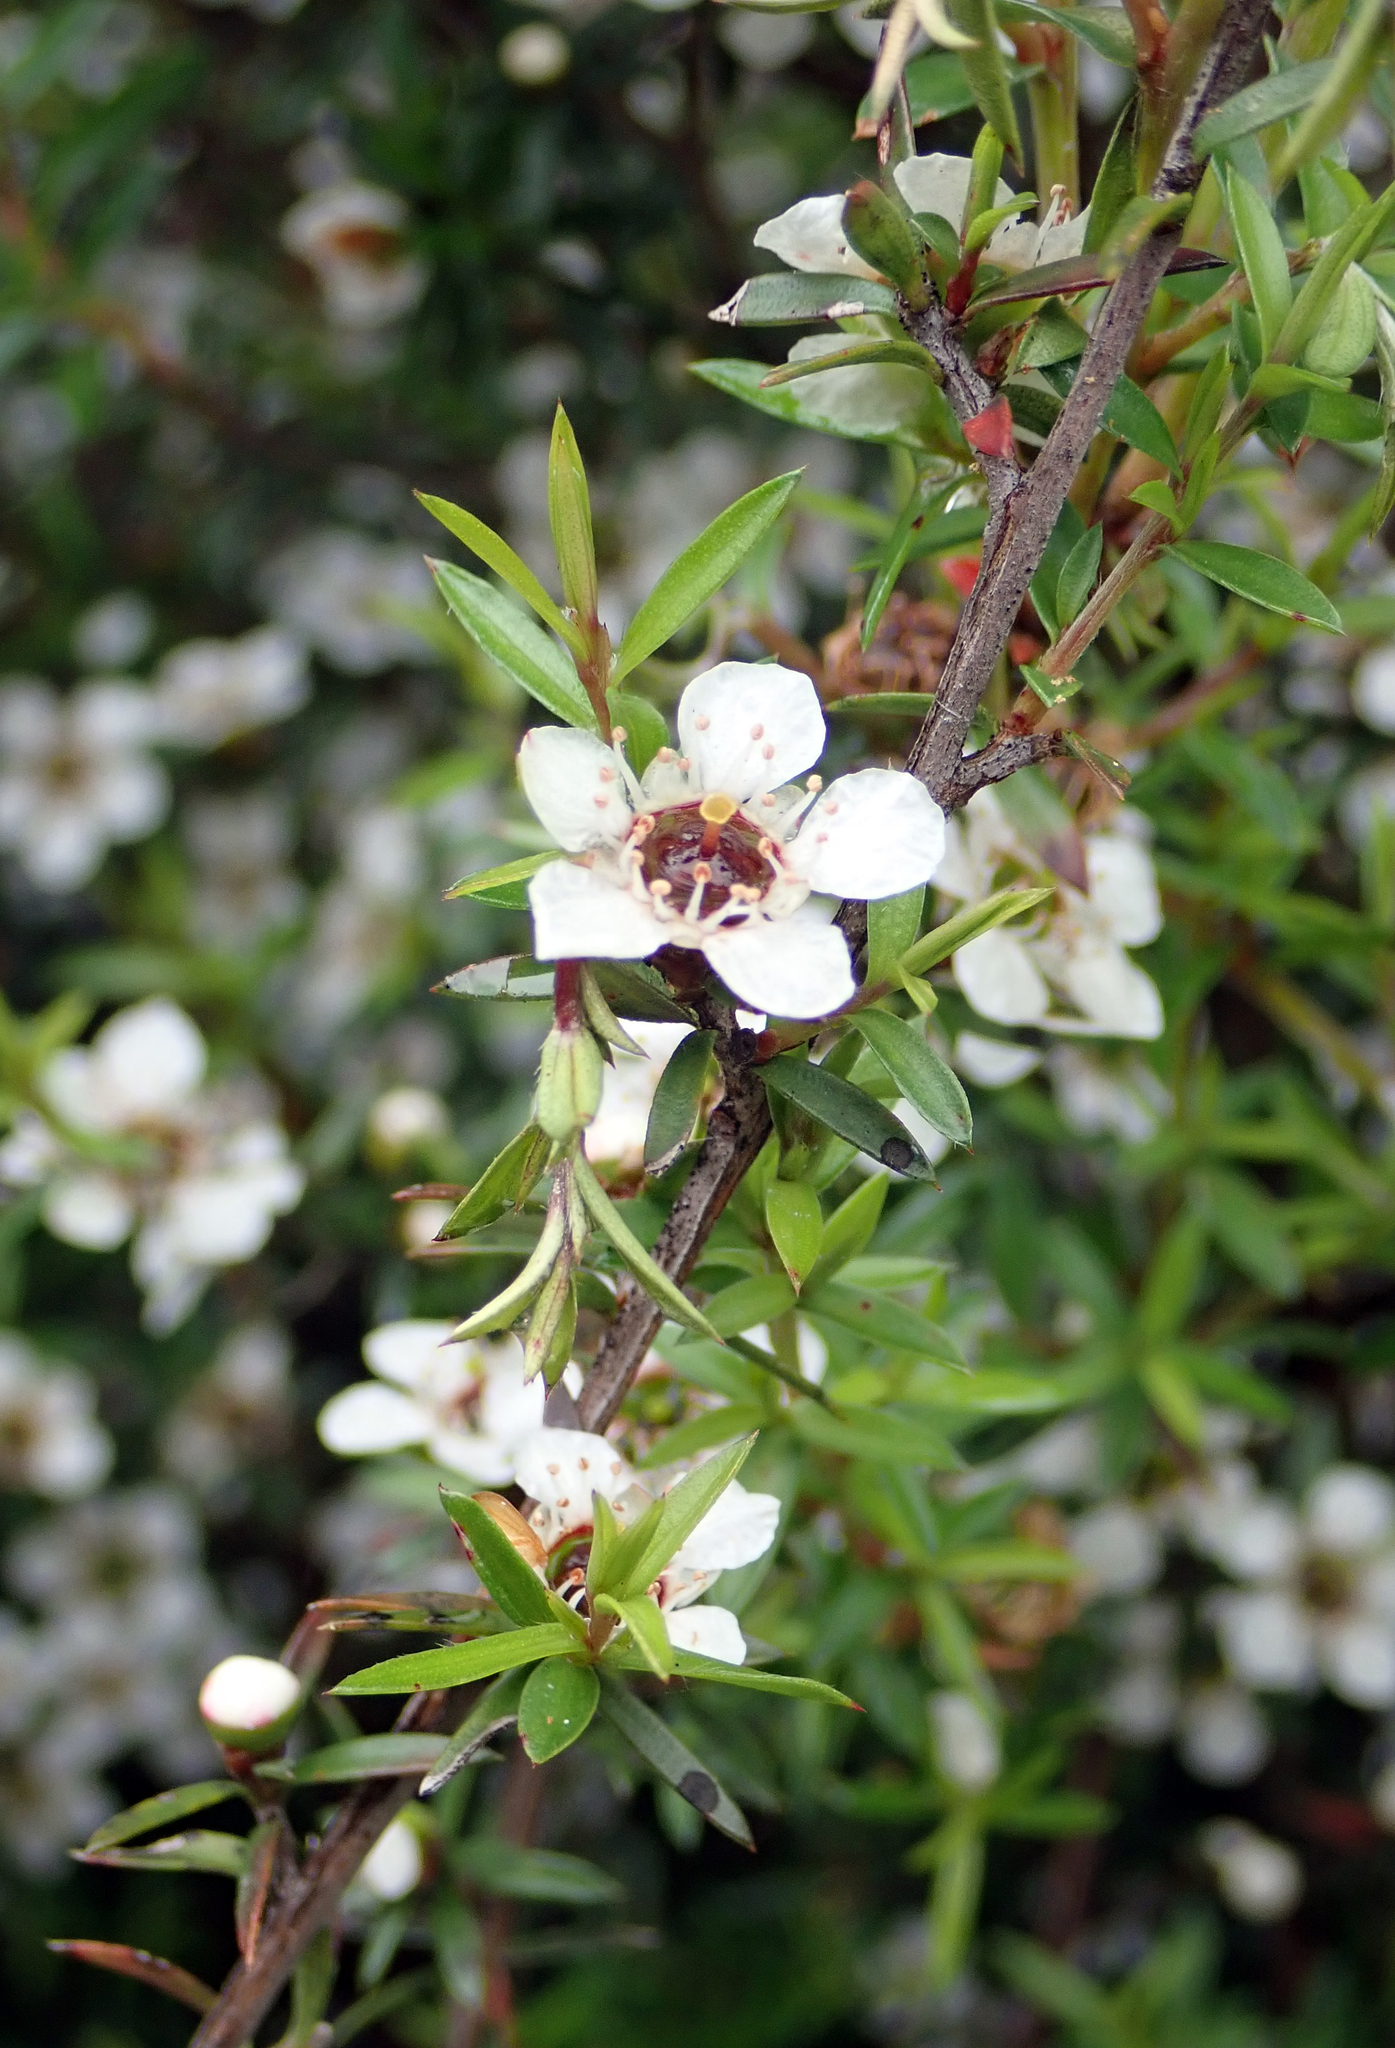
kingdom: Plantae
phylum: Tracheophyta
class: Magnoliopsida
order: Myrtales
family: Myrtaceae
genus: Leptospermum
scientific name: Leptospermum scoparium
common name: Broom tea-tree
